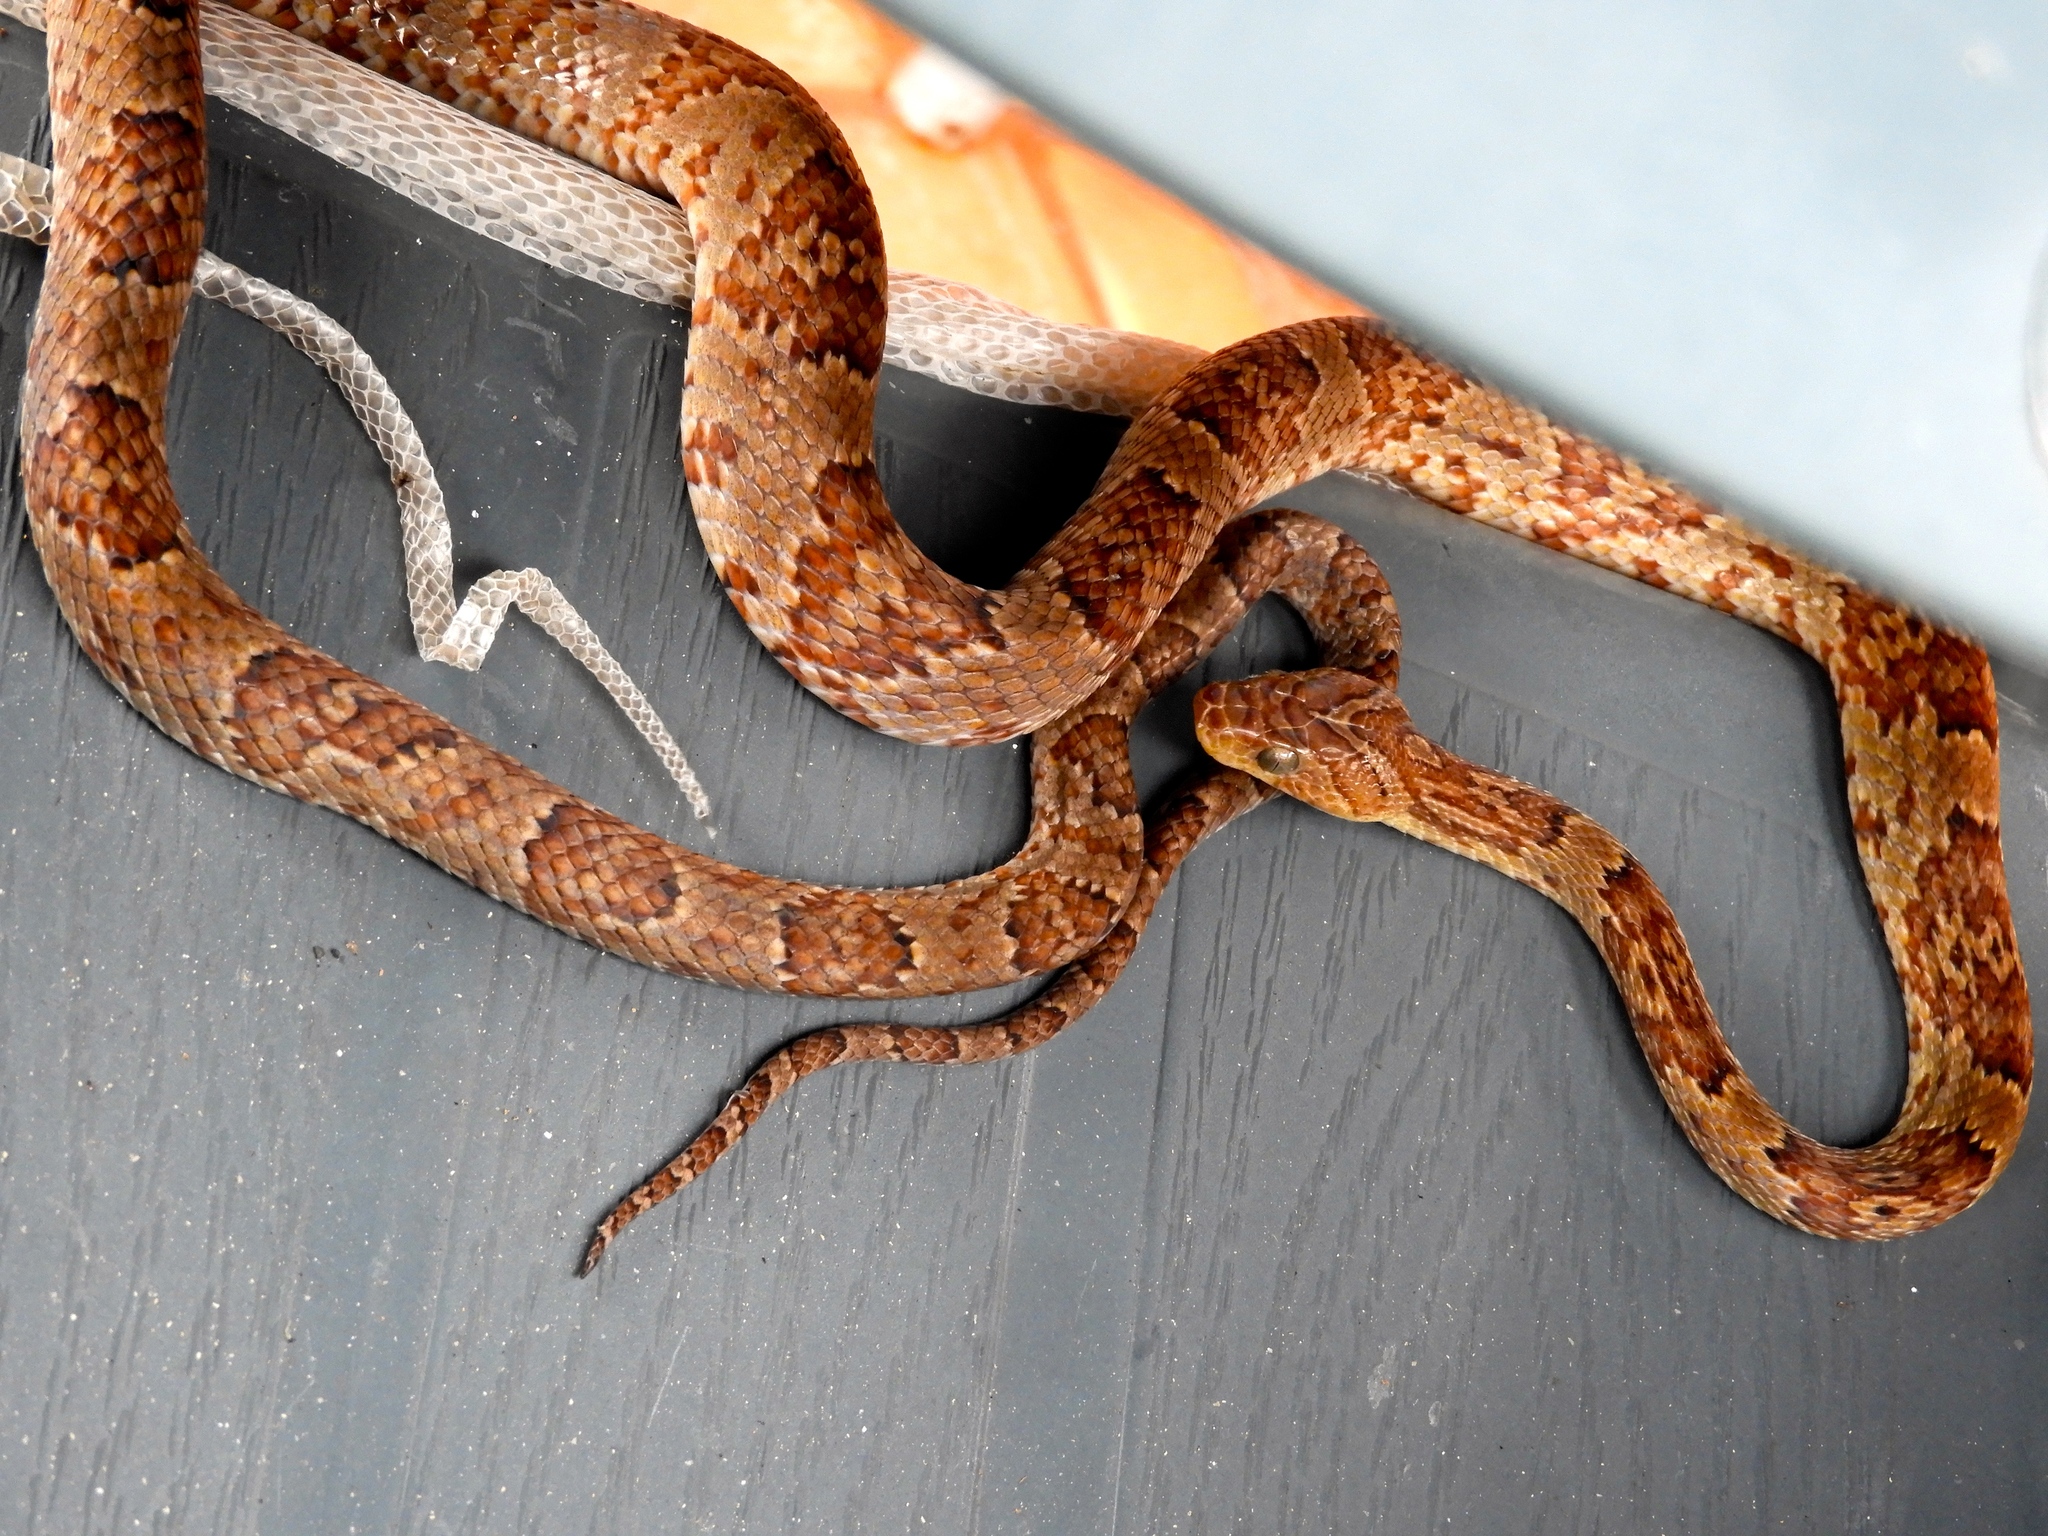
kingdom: Animalia
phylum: Chordata
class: Squamata
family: Colubridae
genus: Trimorphodon
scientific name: Trimorphodon paucimaculatus
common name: Sinaloan lyresnake
